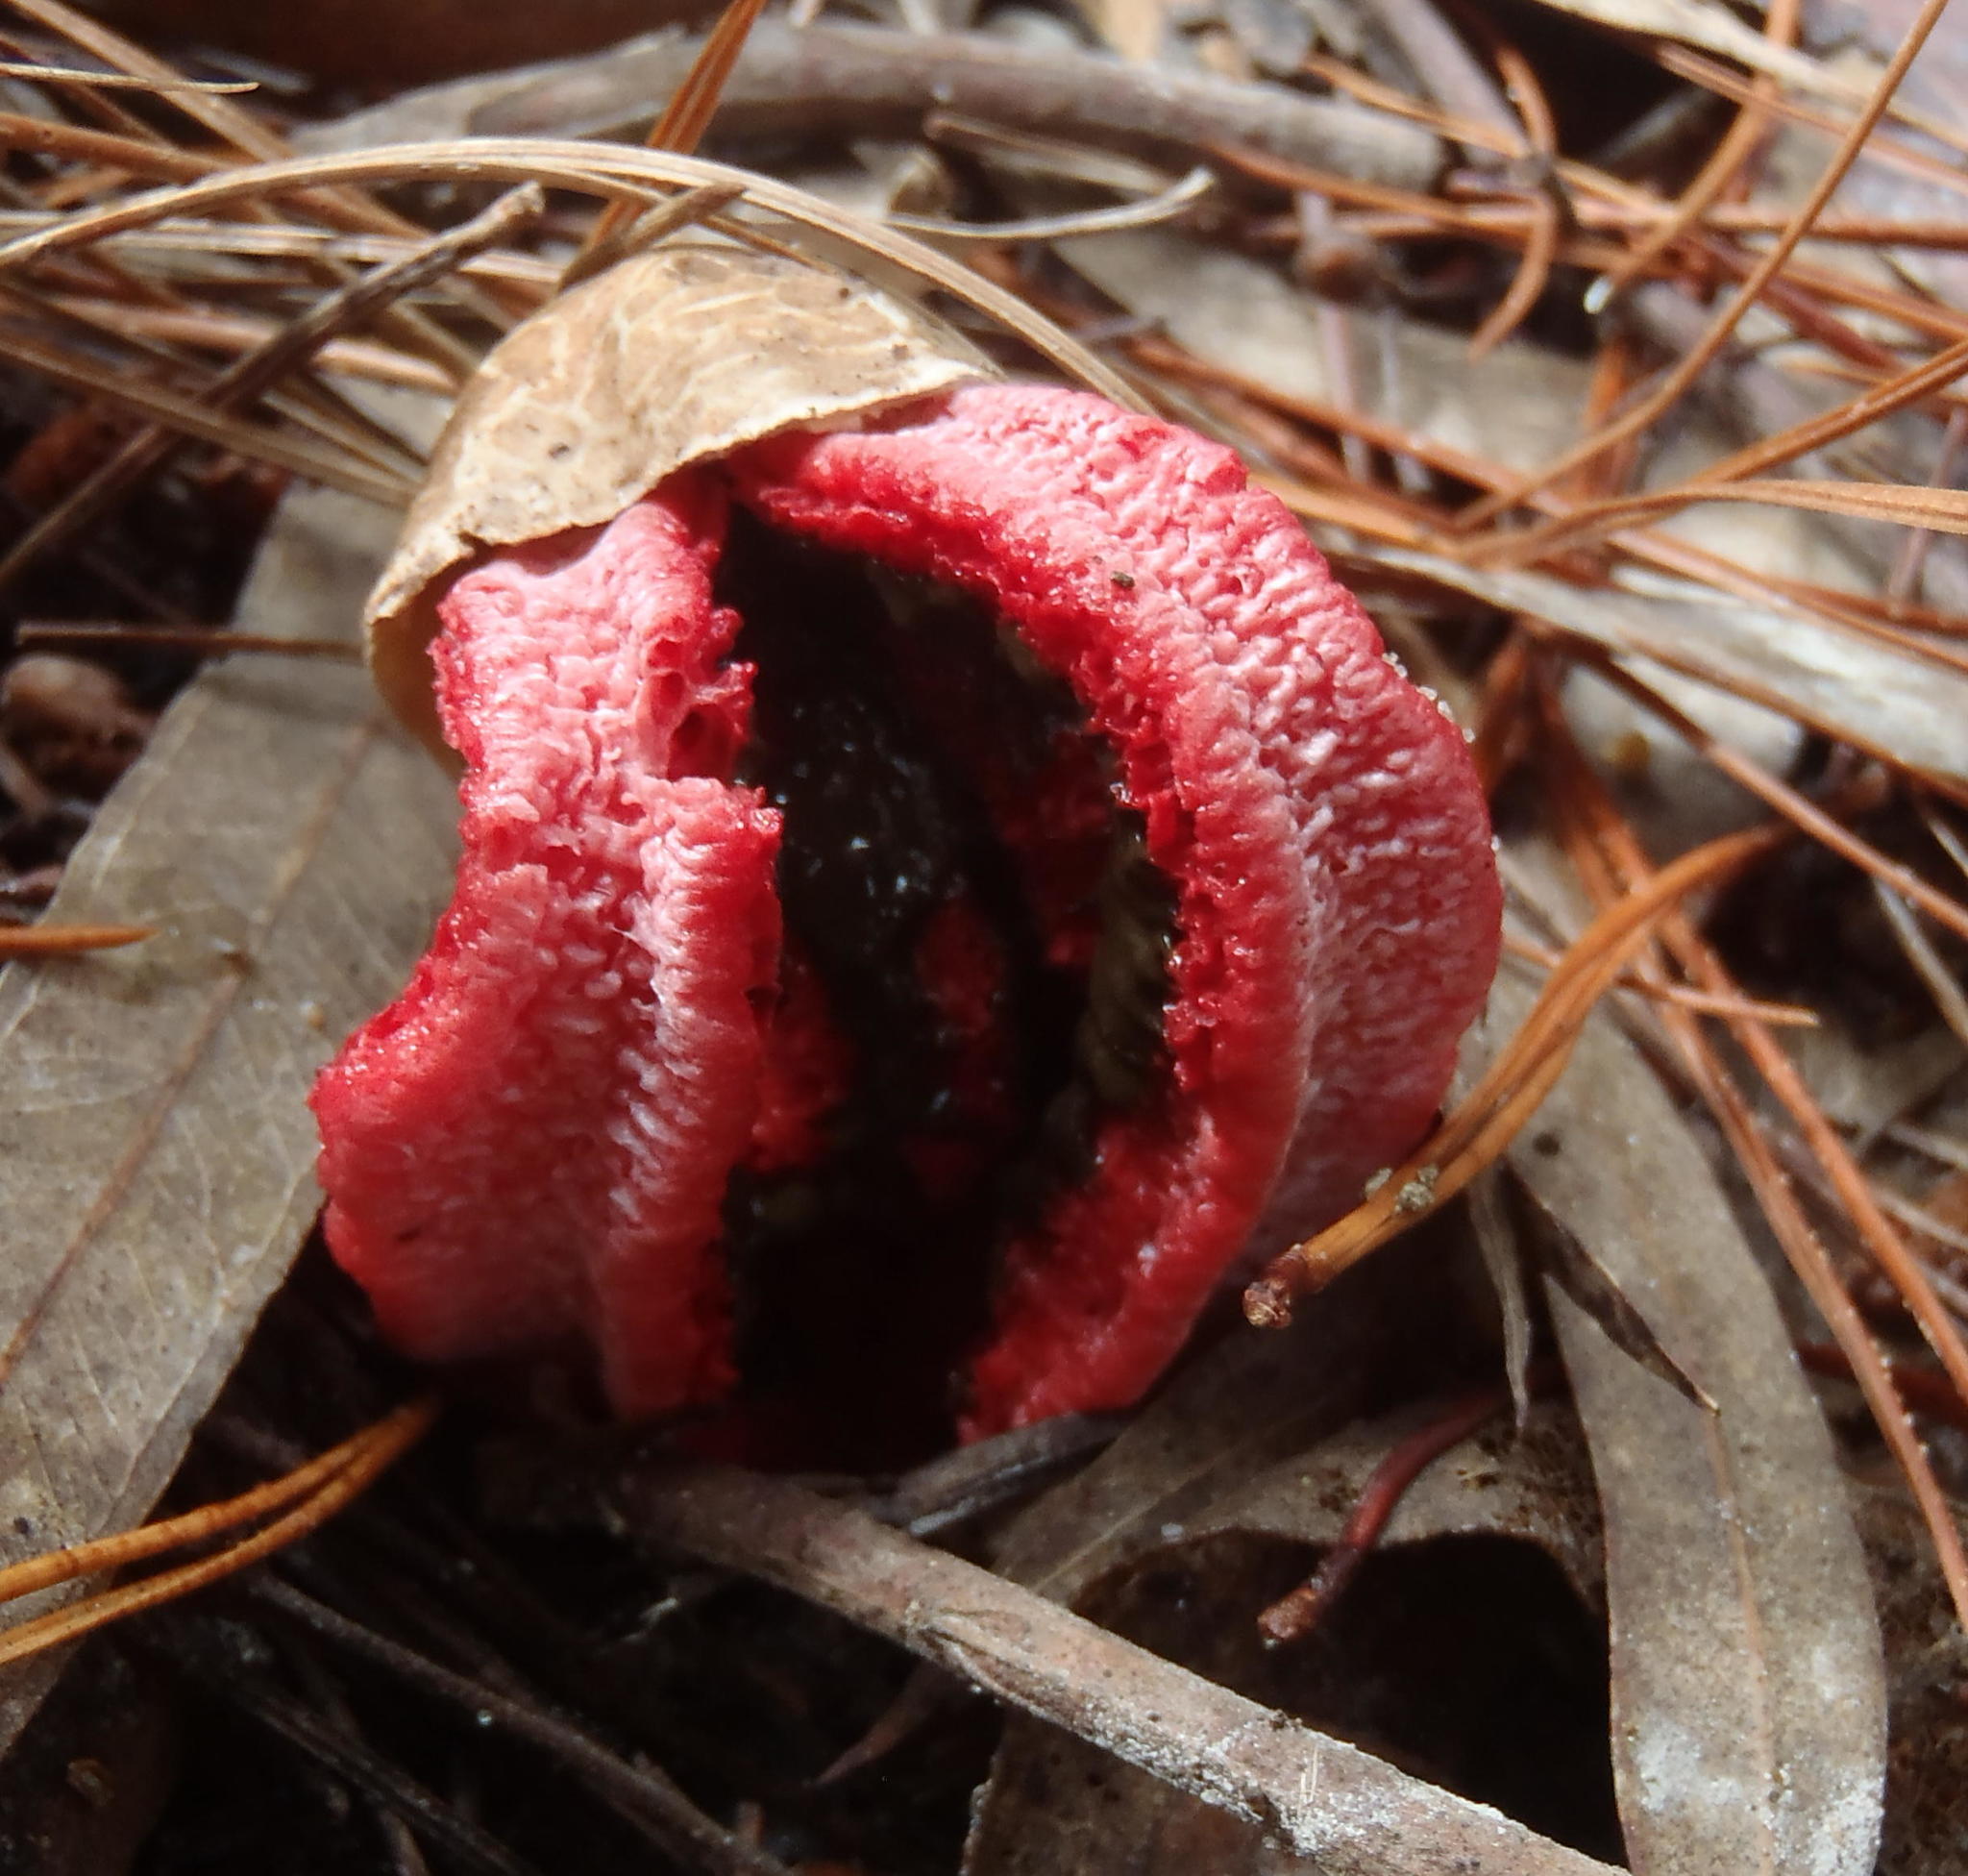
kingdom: Fungi
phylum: Basidiomycota
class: Agaricomycetes
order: Phallales
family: Phallaceae
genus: Clathrus
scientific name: Clathrus archeri
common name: Devil's fingers
